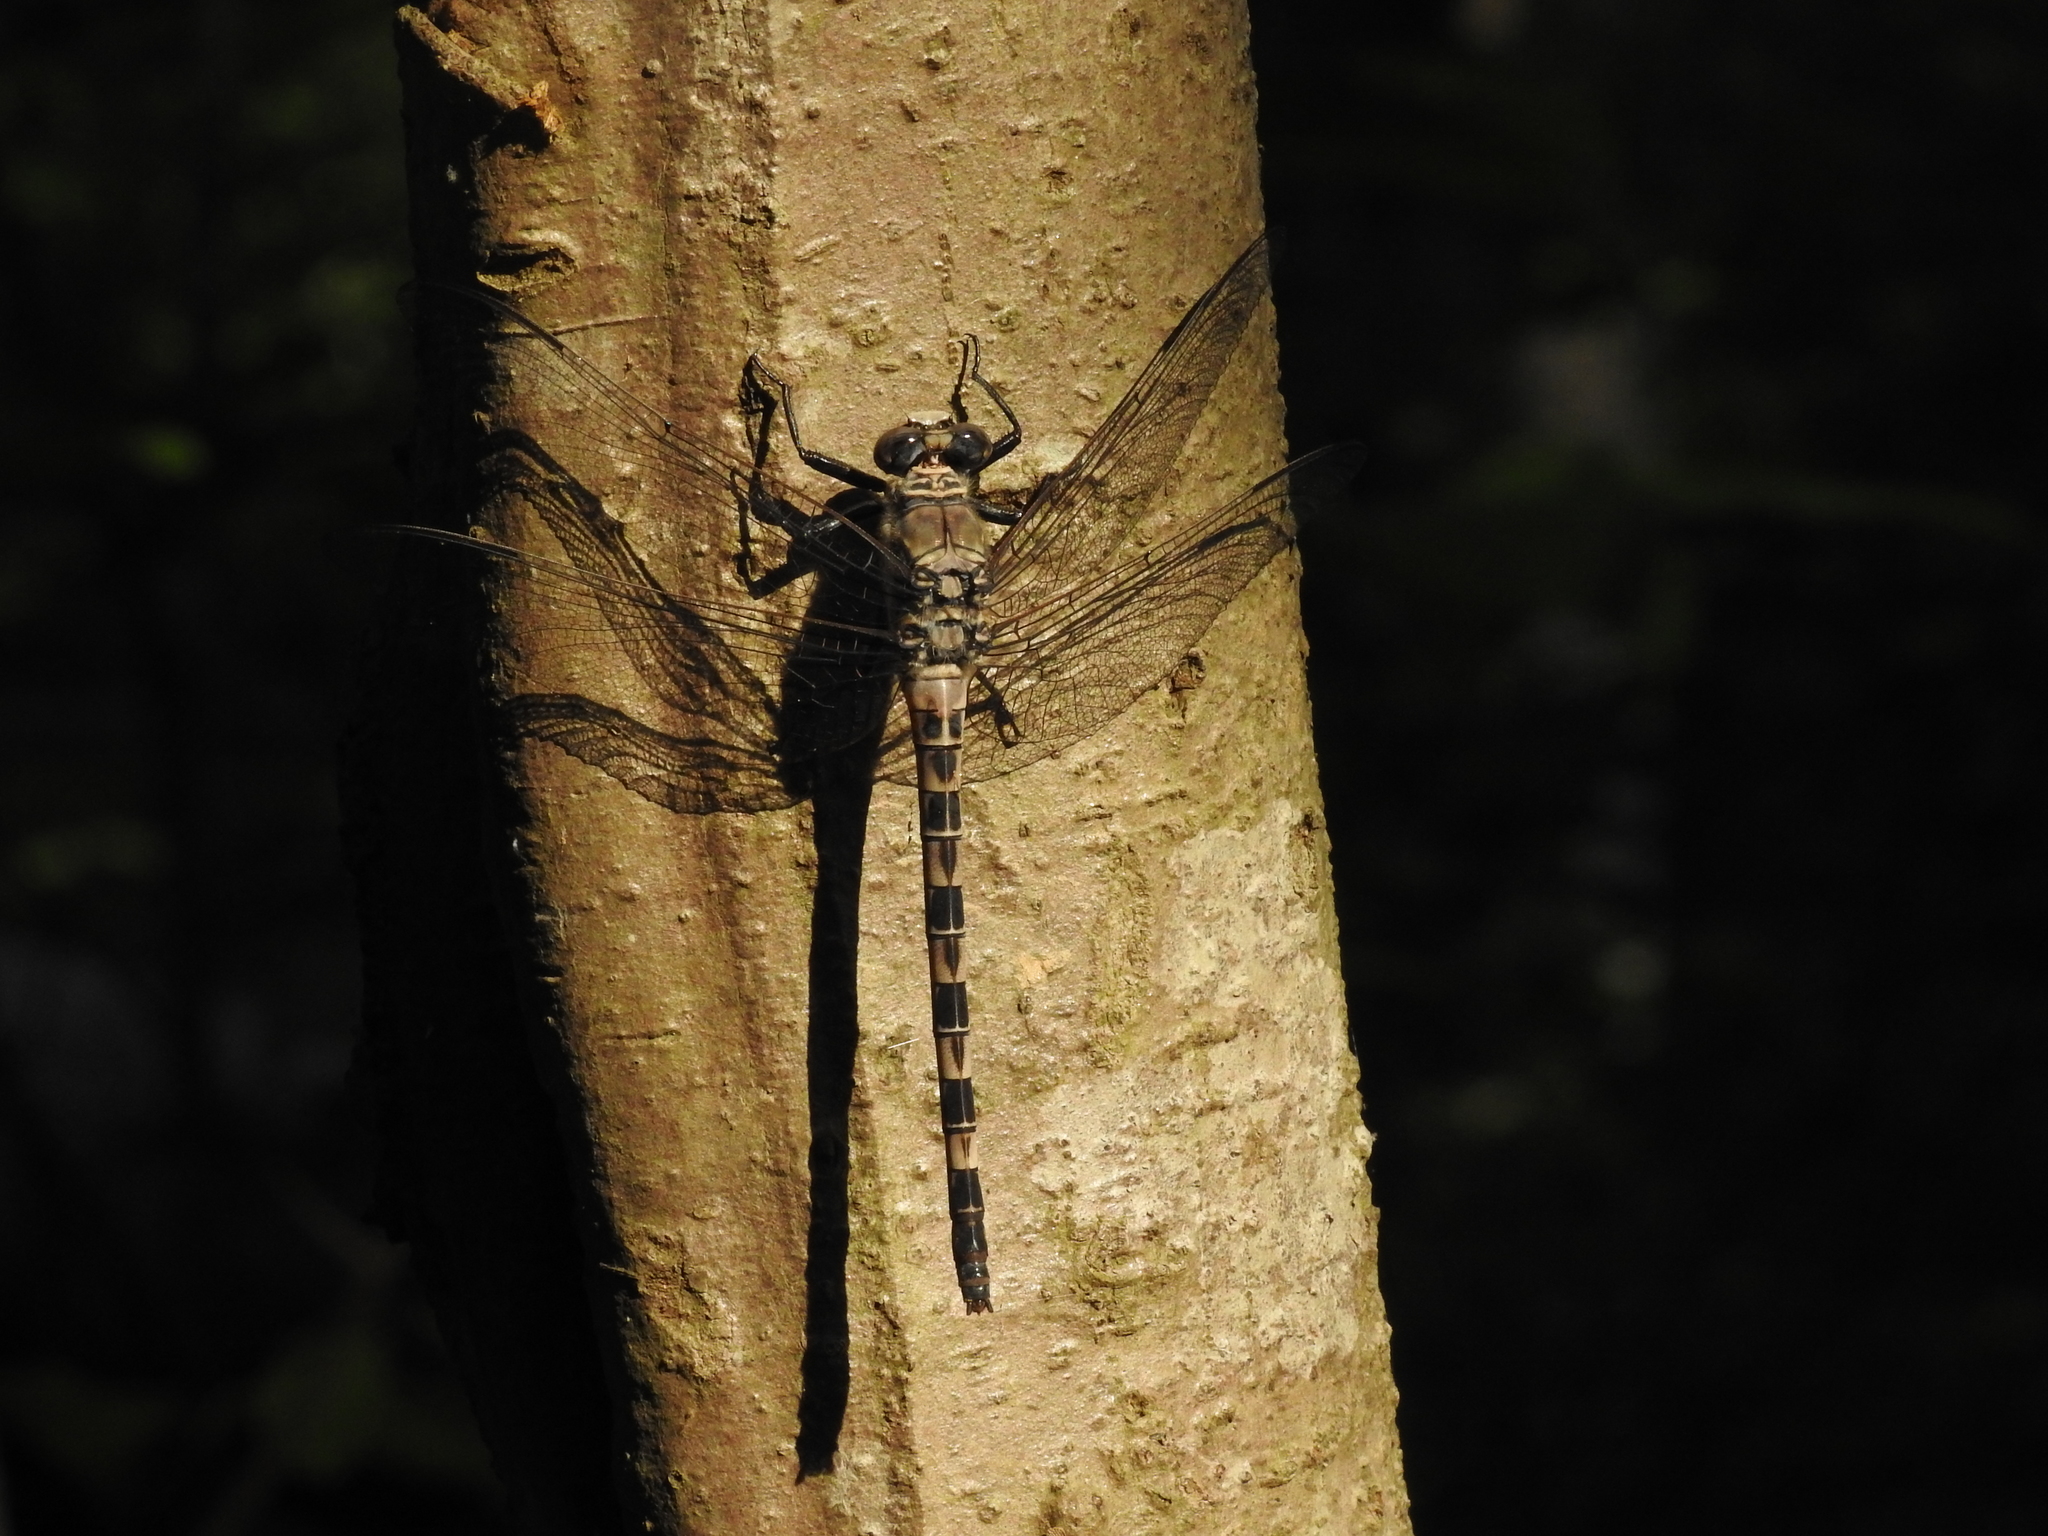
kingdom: Animalia
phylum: Arthropoda
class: Insecta
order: Odonata
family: Petaluridae
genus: Tachopteryx
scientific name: Tachopteryx thoreyi
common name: Gray petaltail
